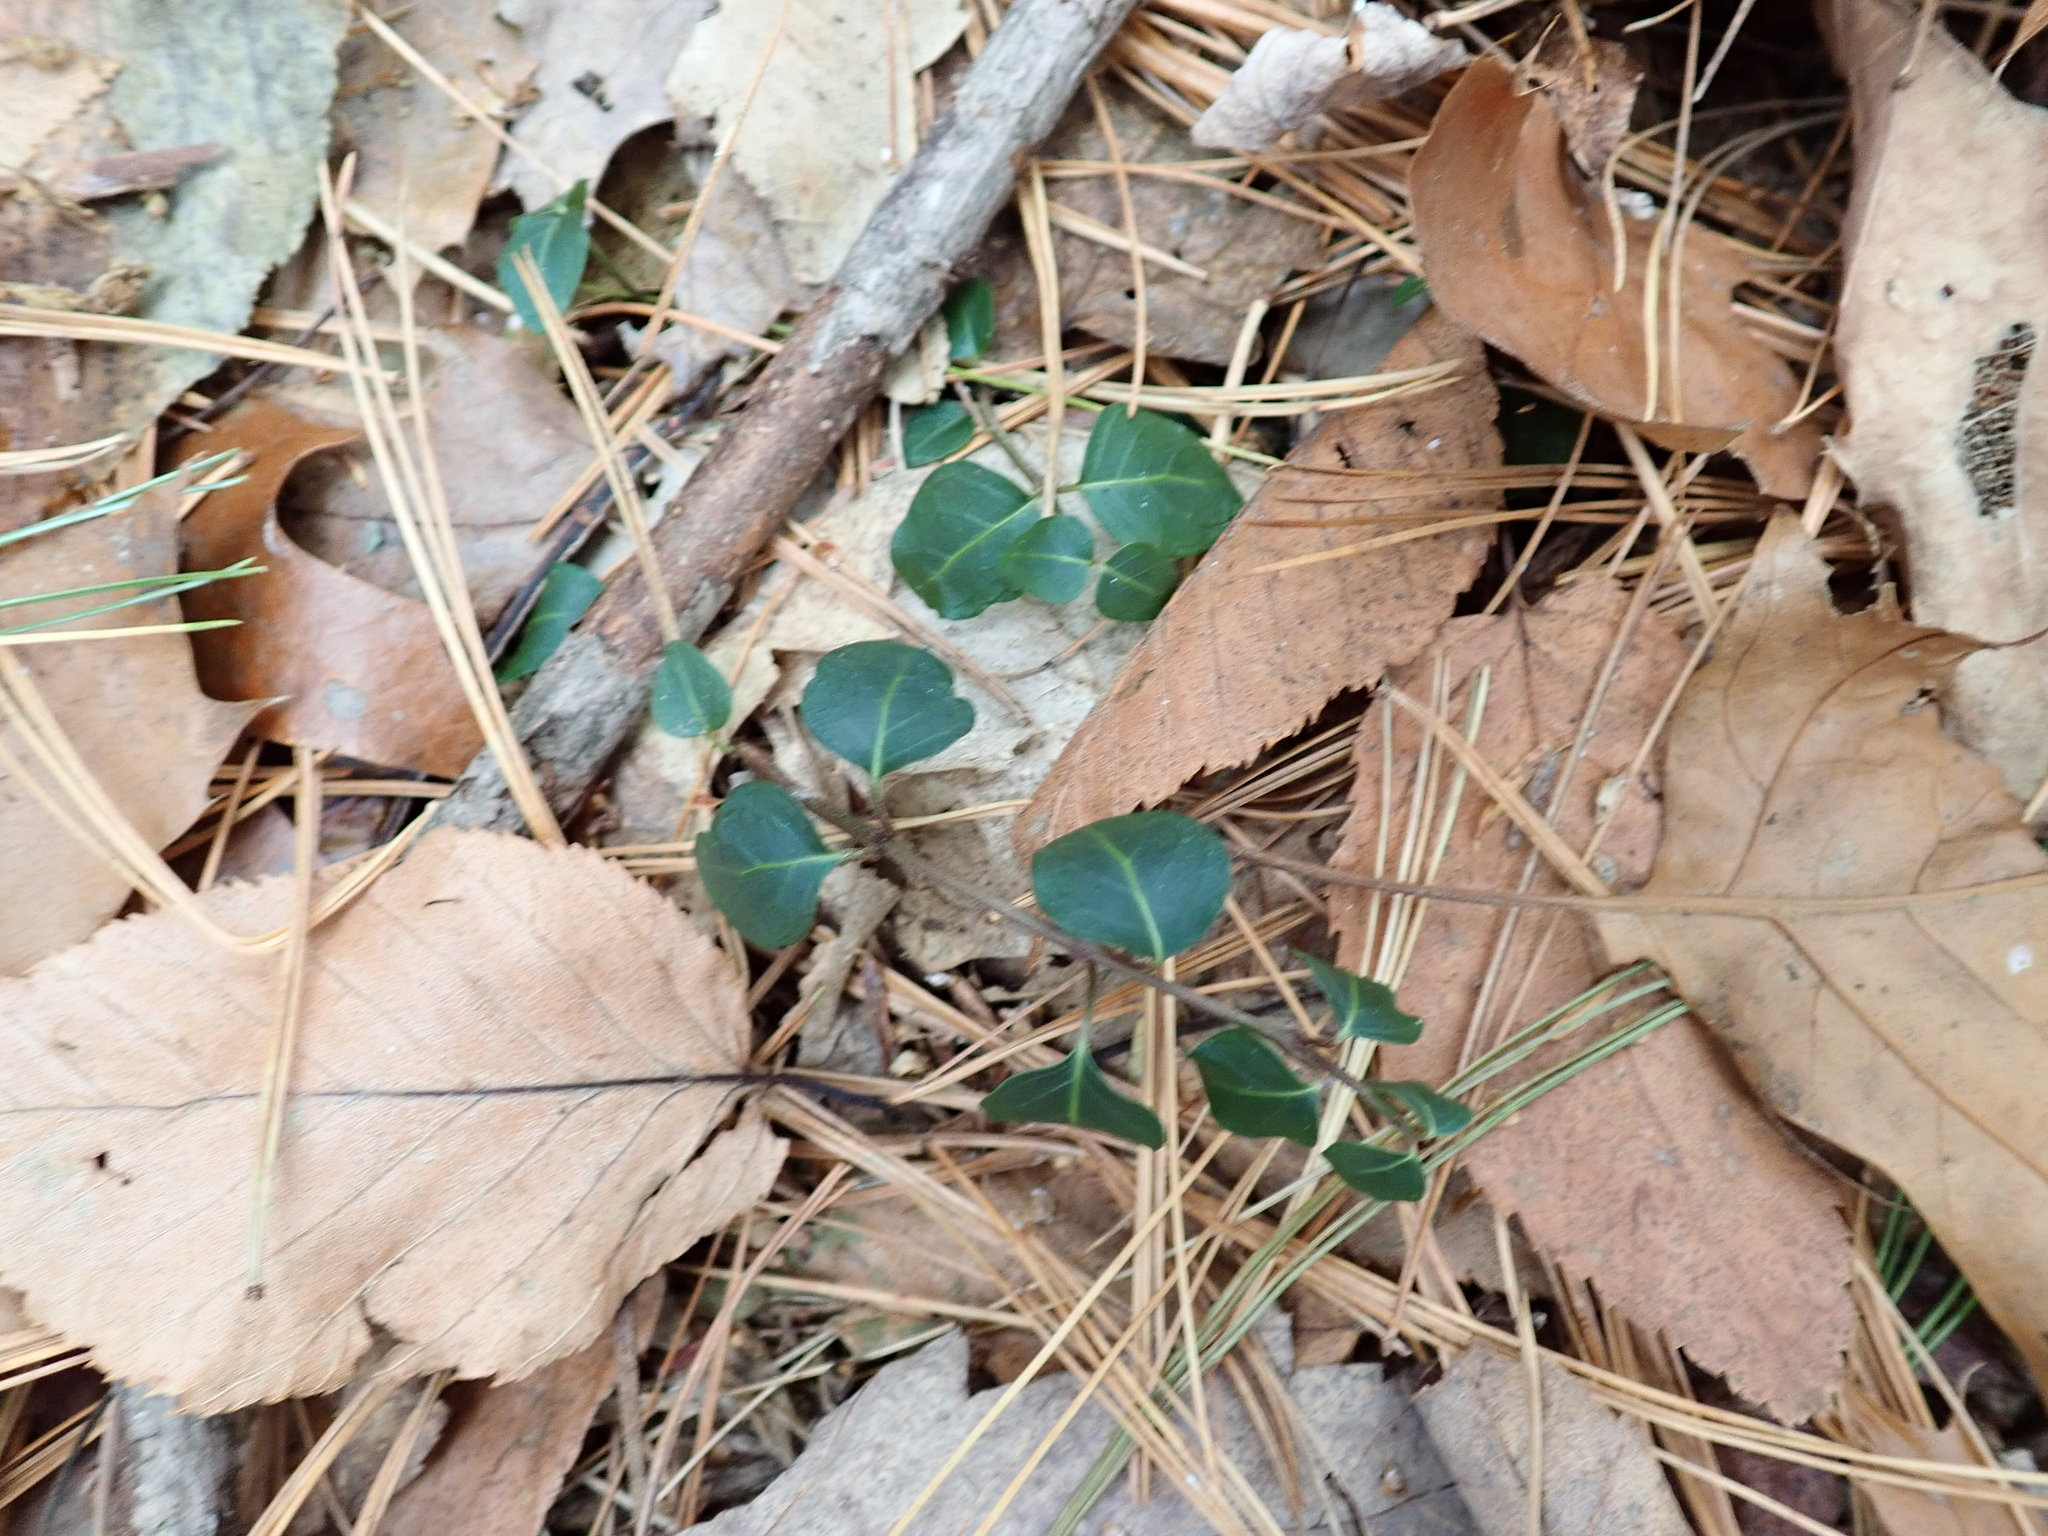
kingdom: Plantae
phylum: Tracheophyta
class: Magnoliopsida
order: Gentianales
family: Rubiaceae
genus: Mitchella
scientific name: Mitchella repens
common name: Partridge-berry
